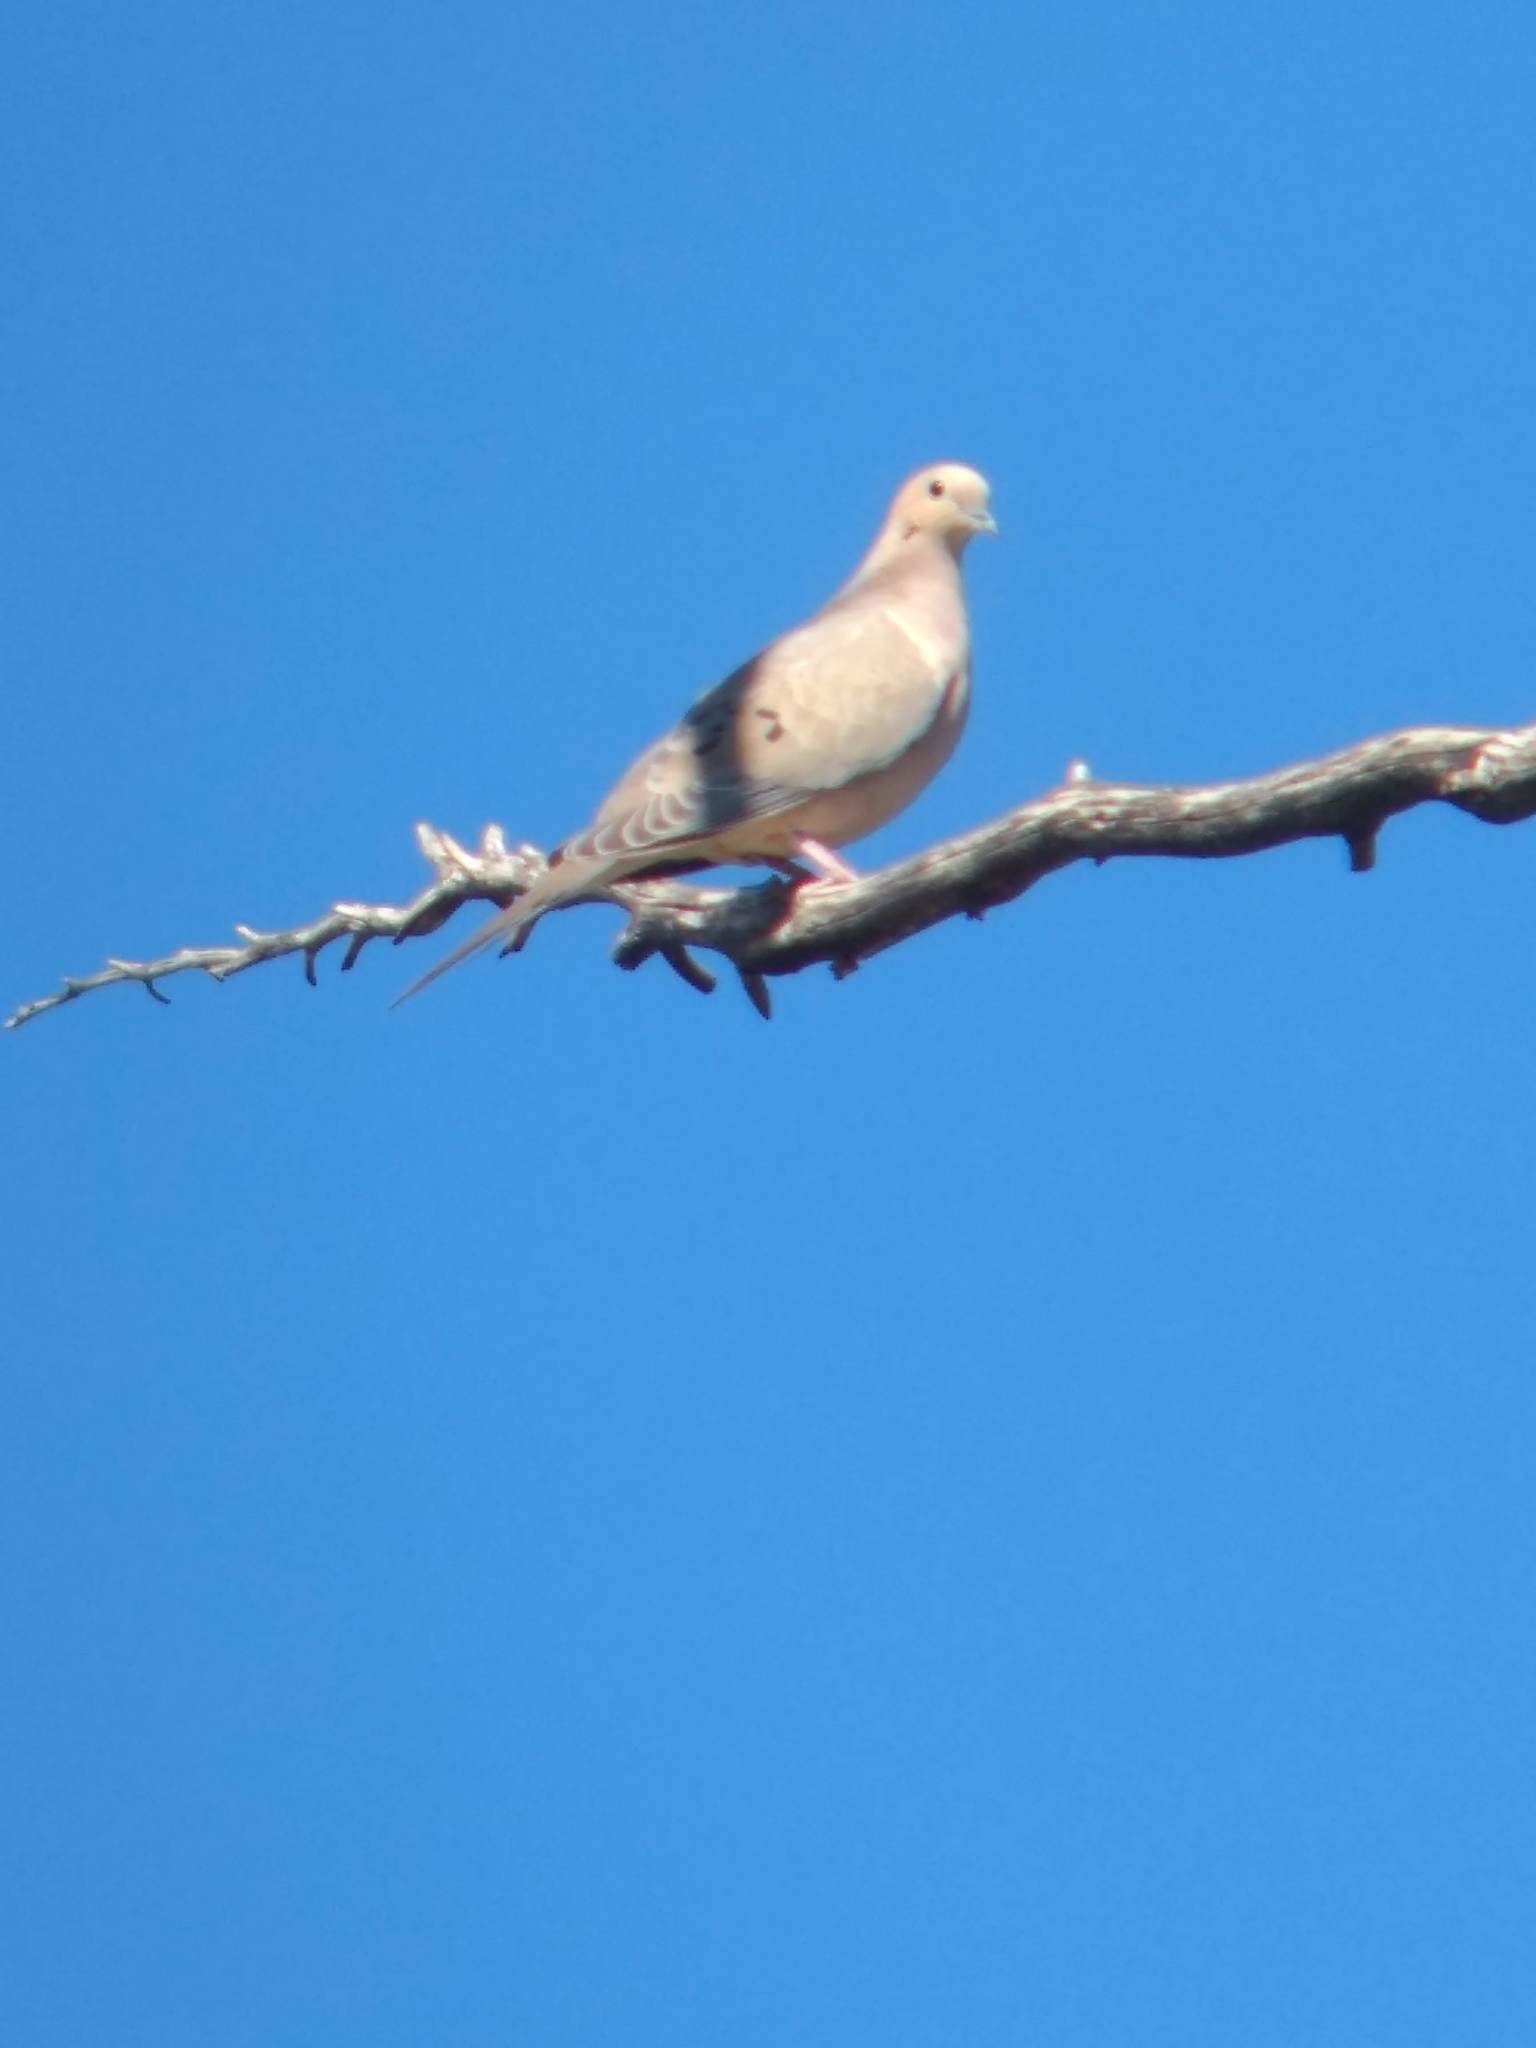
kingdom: Animalia
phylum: Chordata
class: Aves
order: Columbiformes
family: Columbidae
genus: Zenaida
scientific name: Zenaida macroura
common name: Mourning dove
